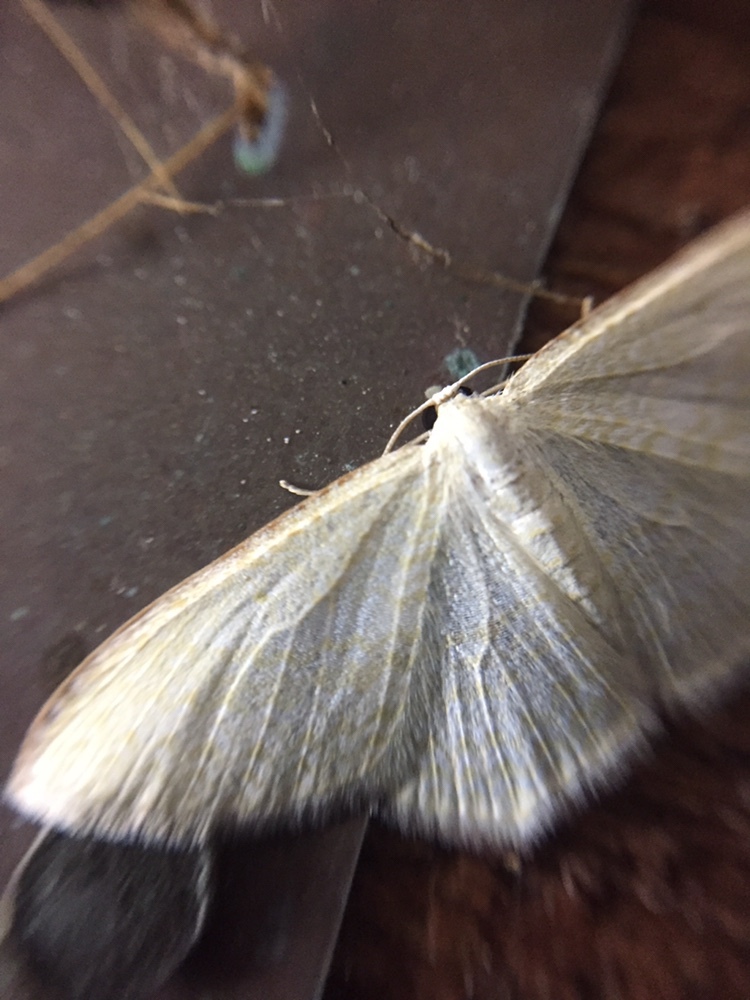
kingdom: Animalia
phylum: Arthropoda
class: Insecta
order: Lepidoptera
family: Geometridae
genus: Poecilasthena
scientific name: Poecilasthena pulchraria
